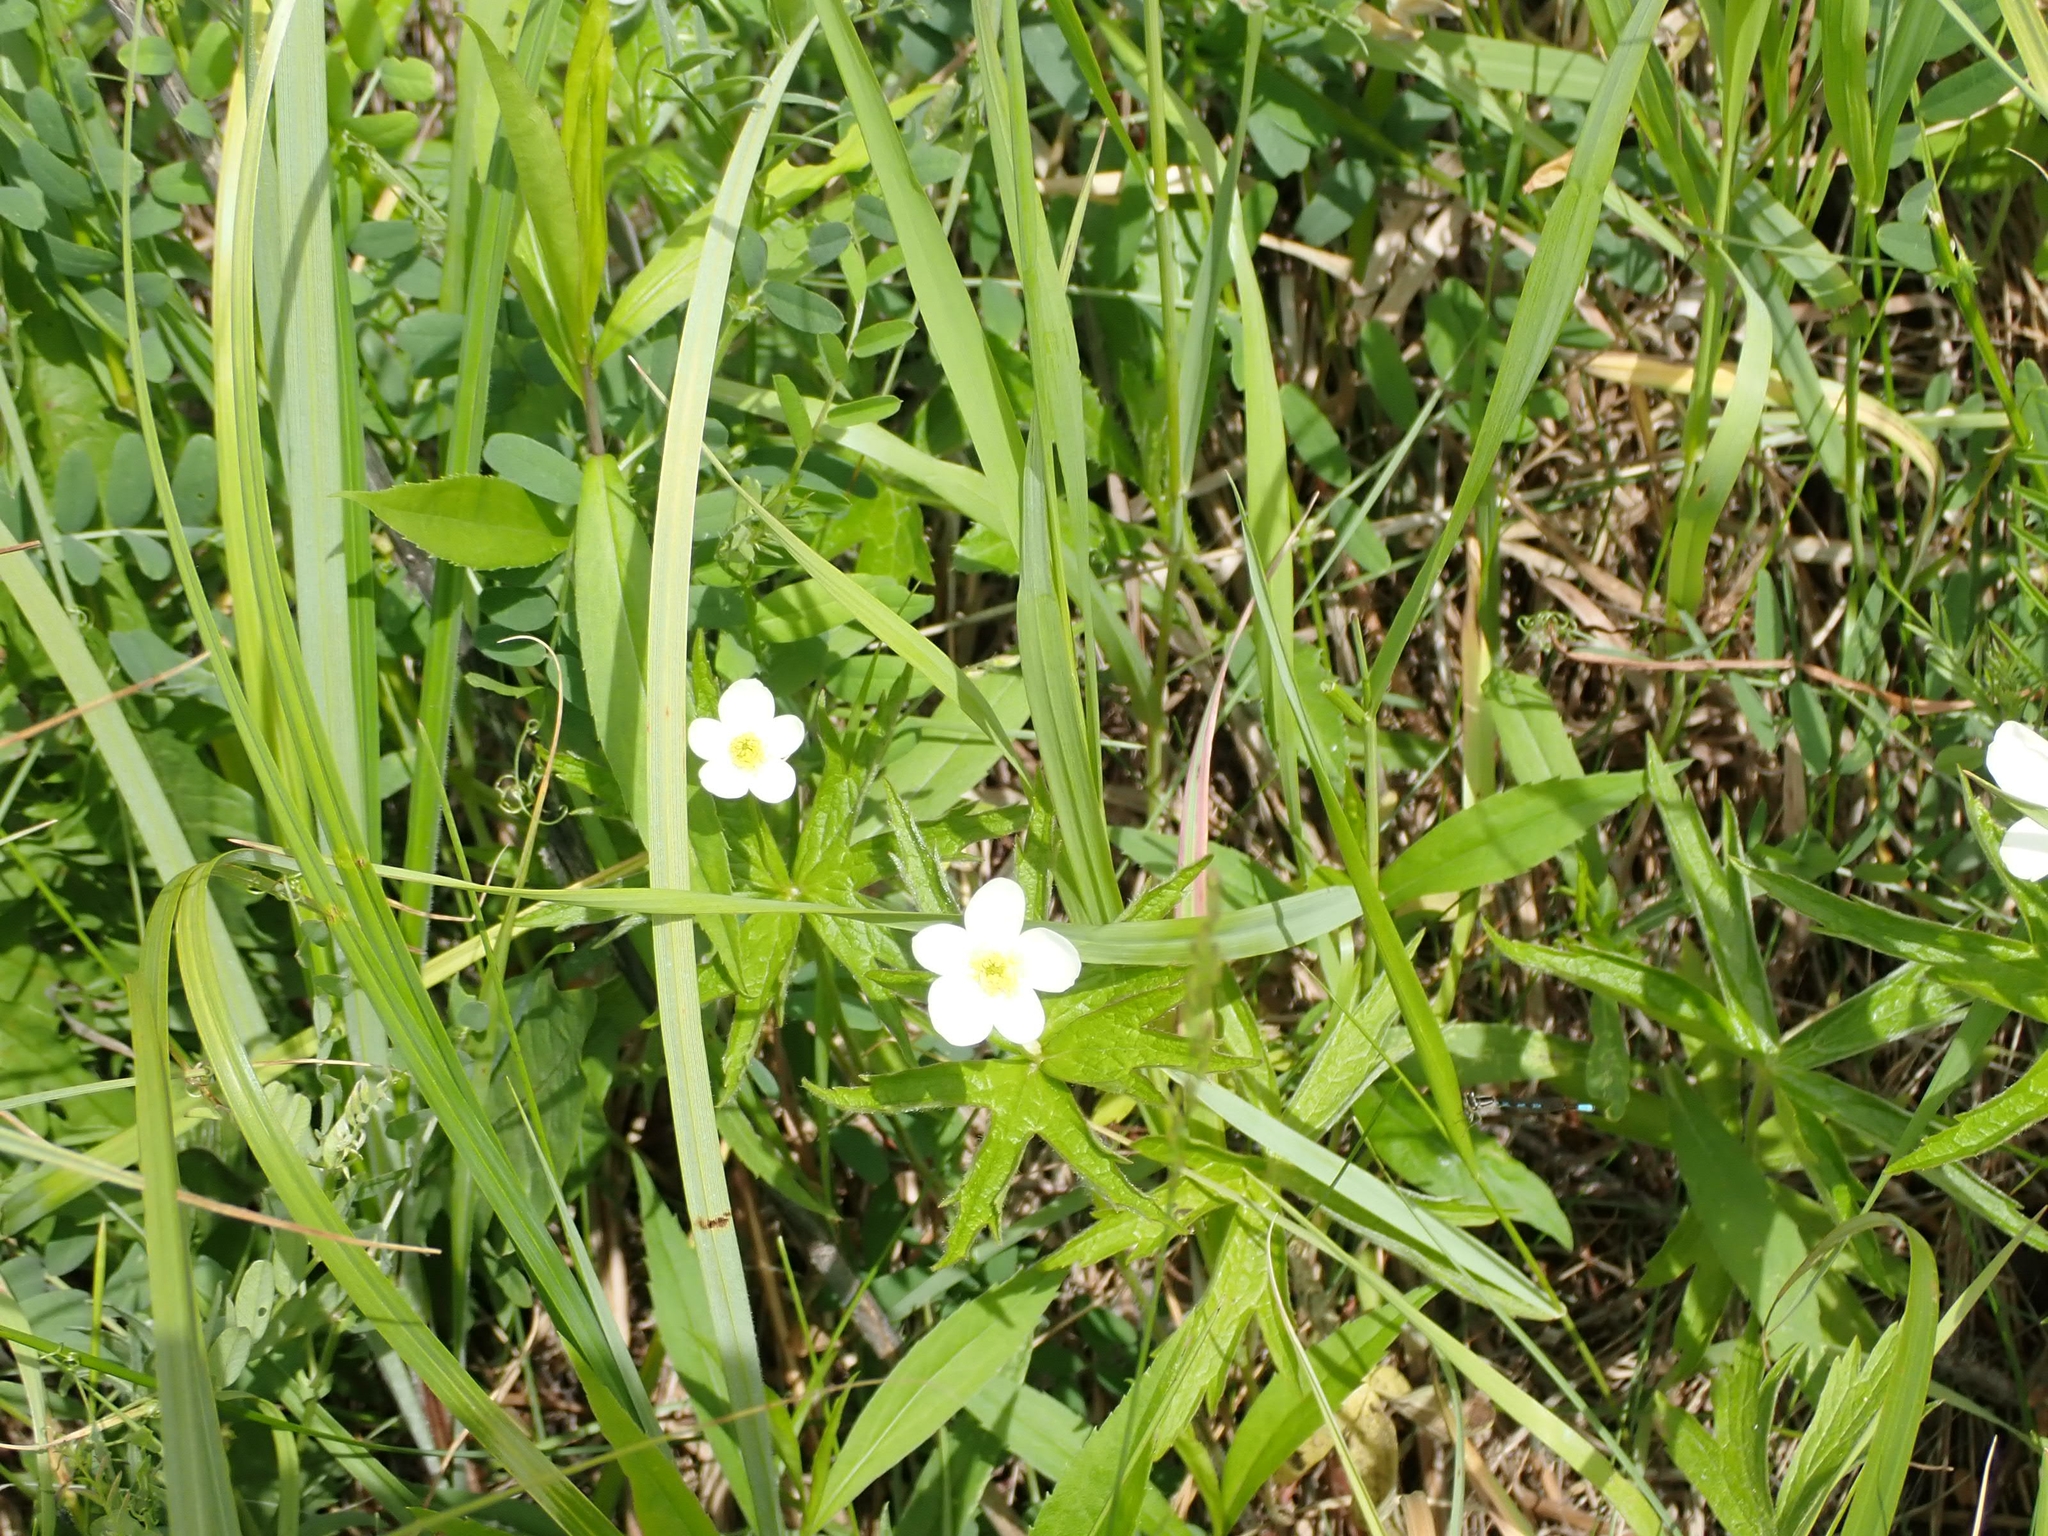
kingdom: Plantae
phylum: Tracheophyta
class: Magnoliopsida
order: Ranunculales
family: Ranunculaceae
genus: Anemonastrum
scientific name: Anemonastrum canadense
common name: Canada anemone
